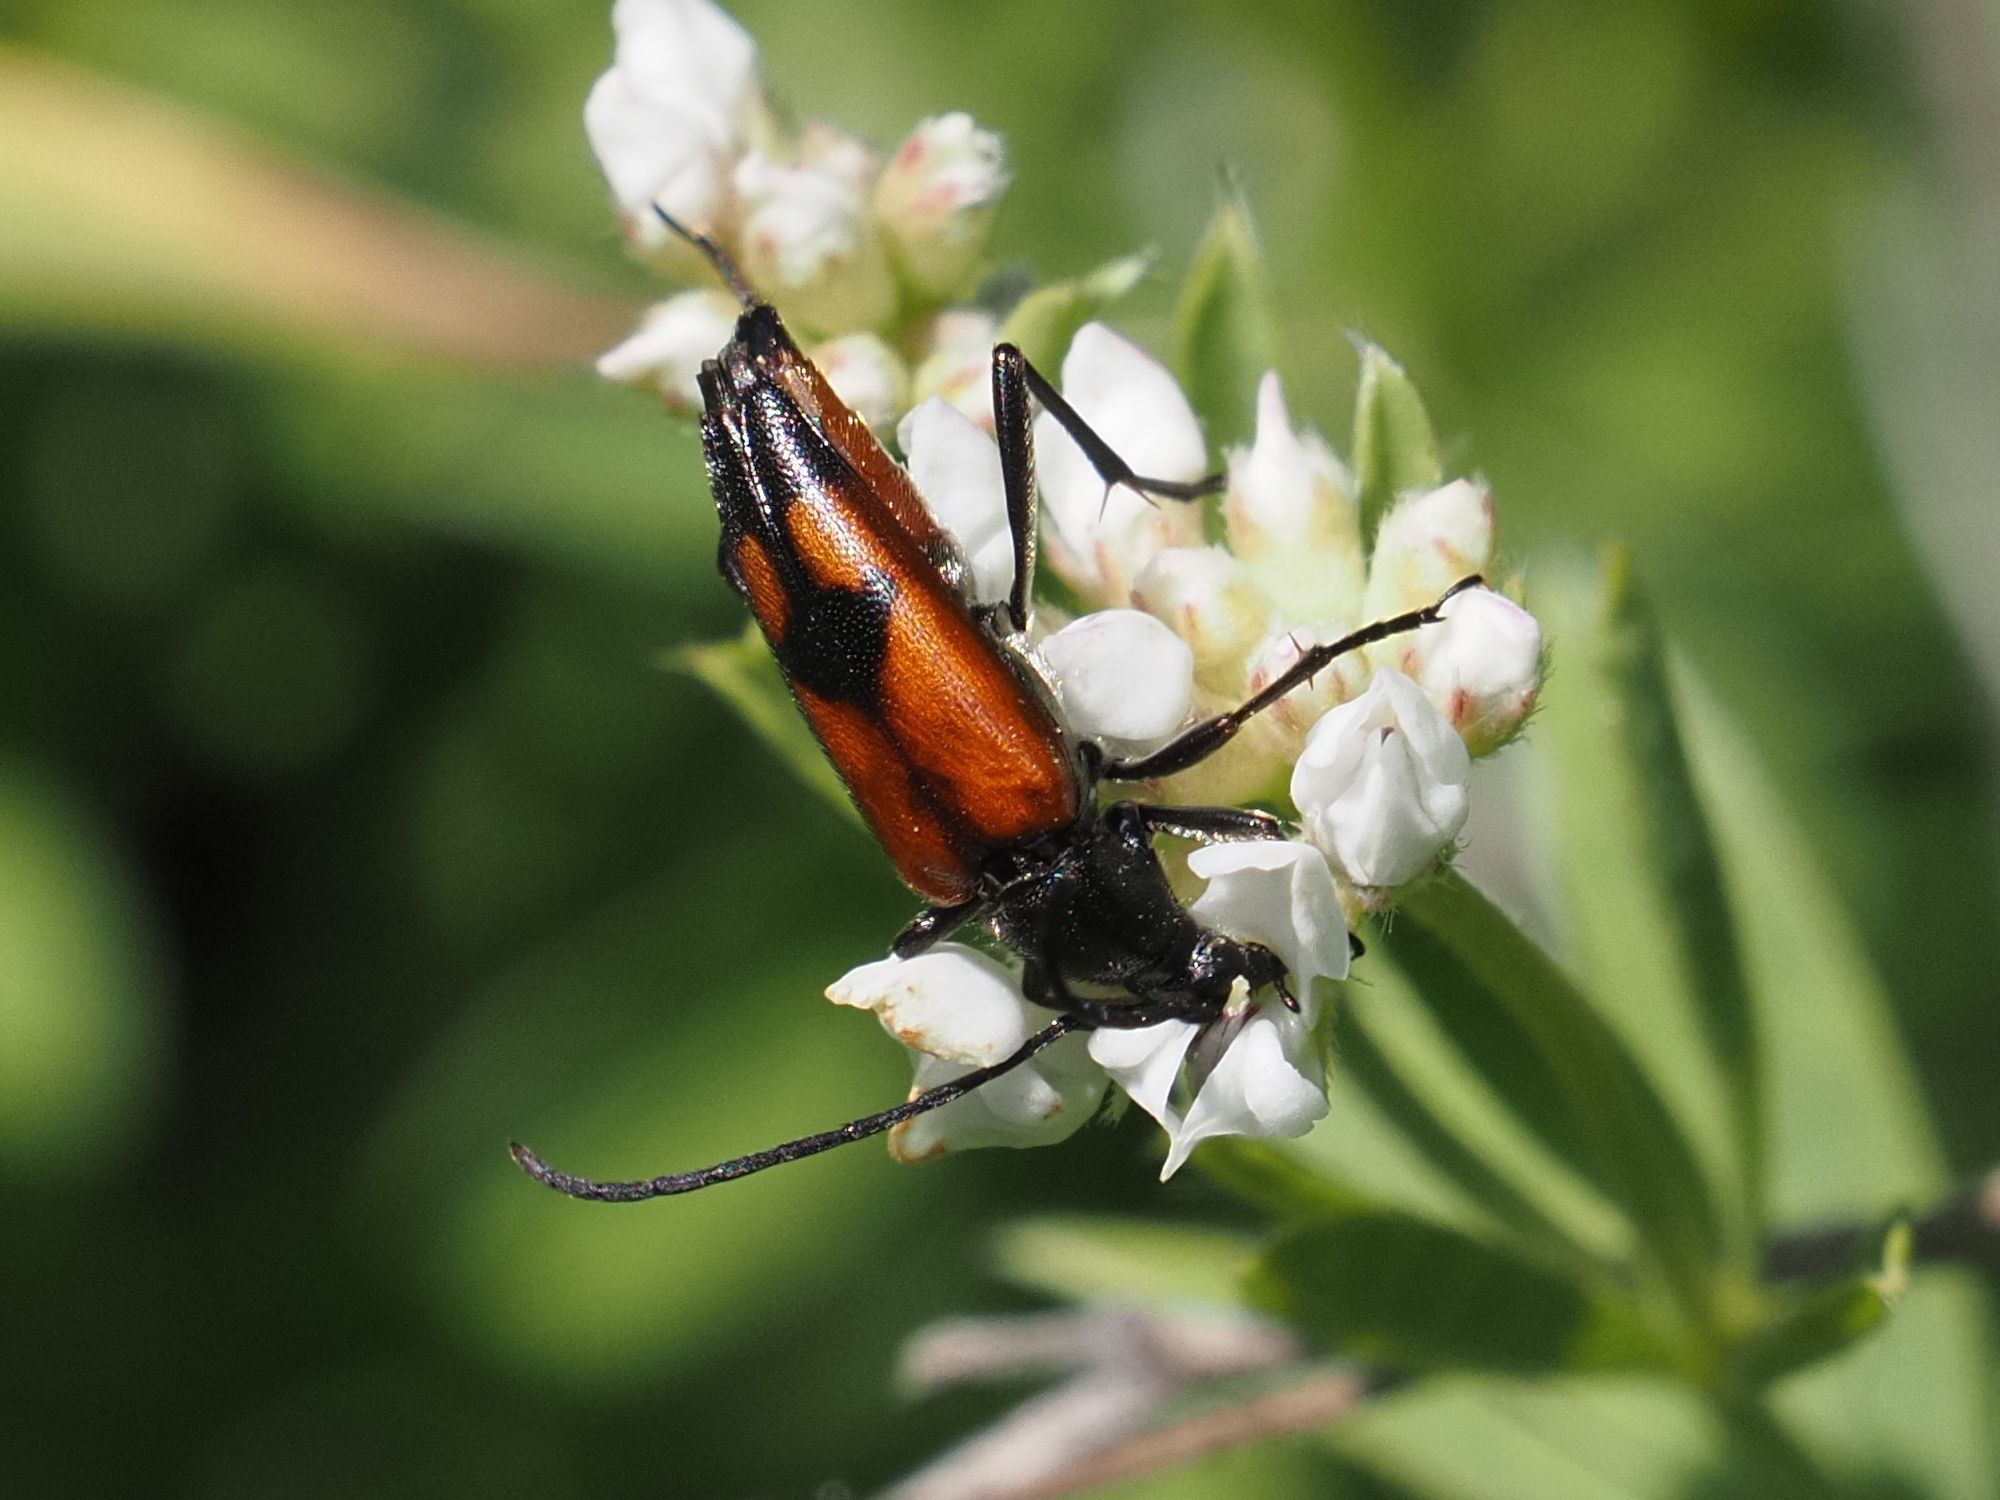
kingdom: Animalia
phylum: Arthropoda
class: Insecta
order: Coleoptera
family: Cerambycidae
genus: Stenurella
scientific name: Stenurella bifasciata
